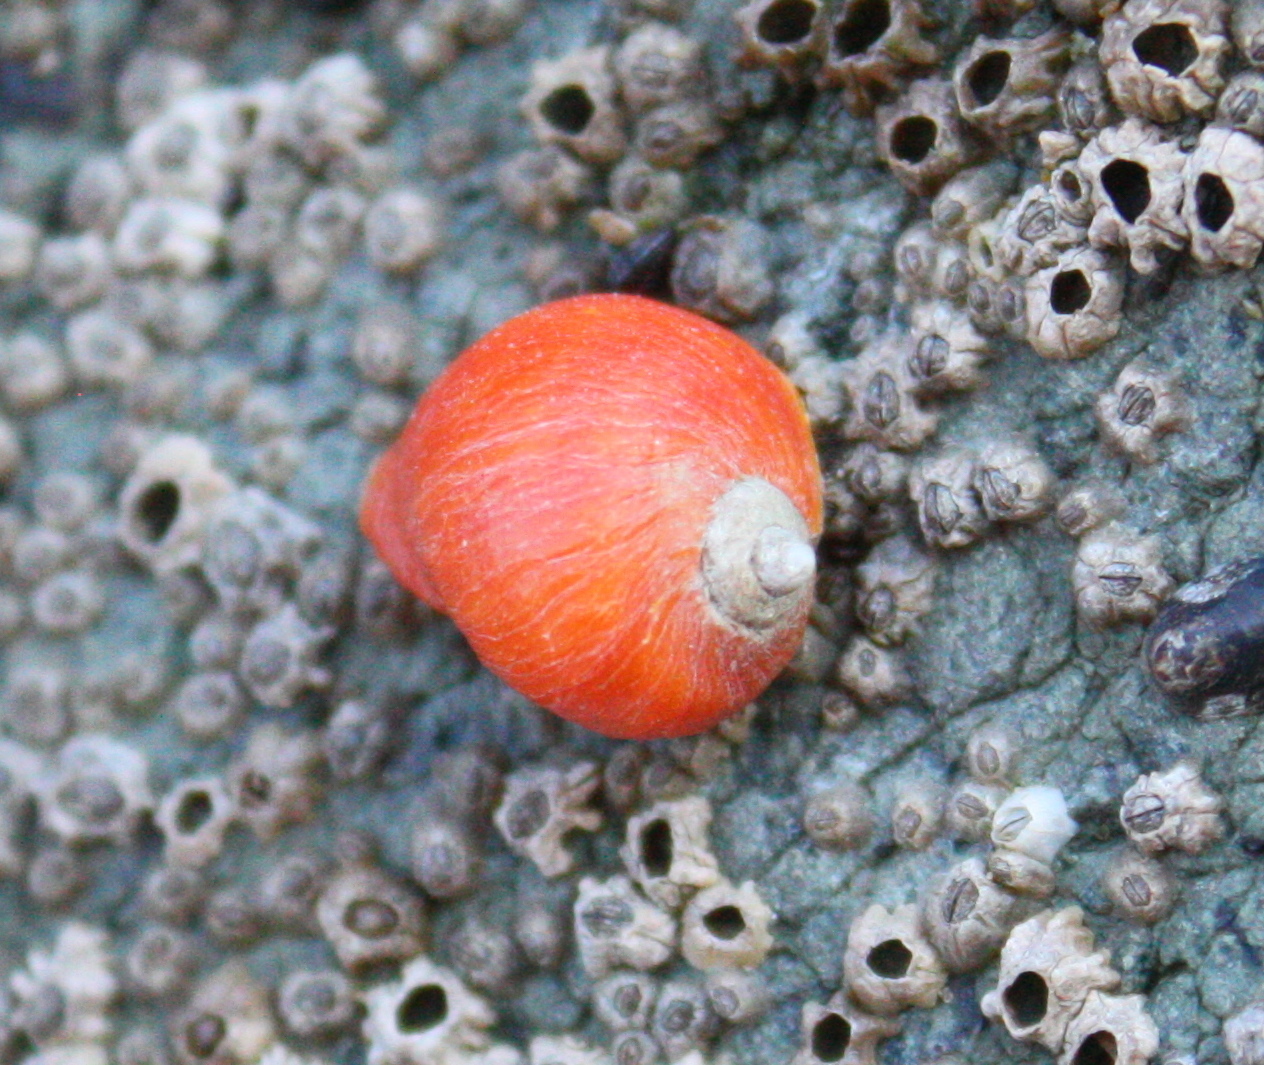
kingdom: Animalia
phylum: Mollusca
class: Gastropoda
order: Neogastropoda
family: Muricidae
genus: Nucella
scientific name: Nucella ostrina
